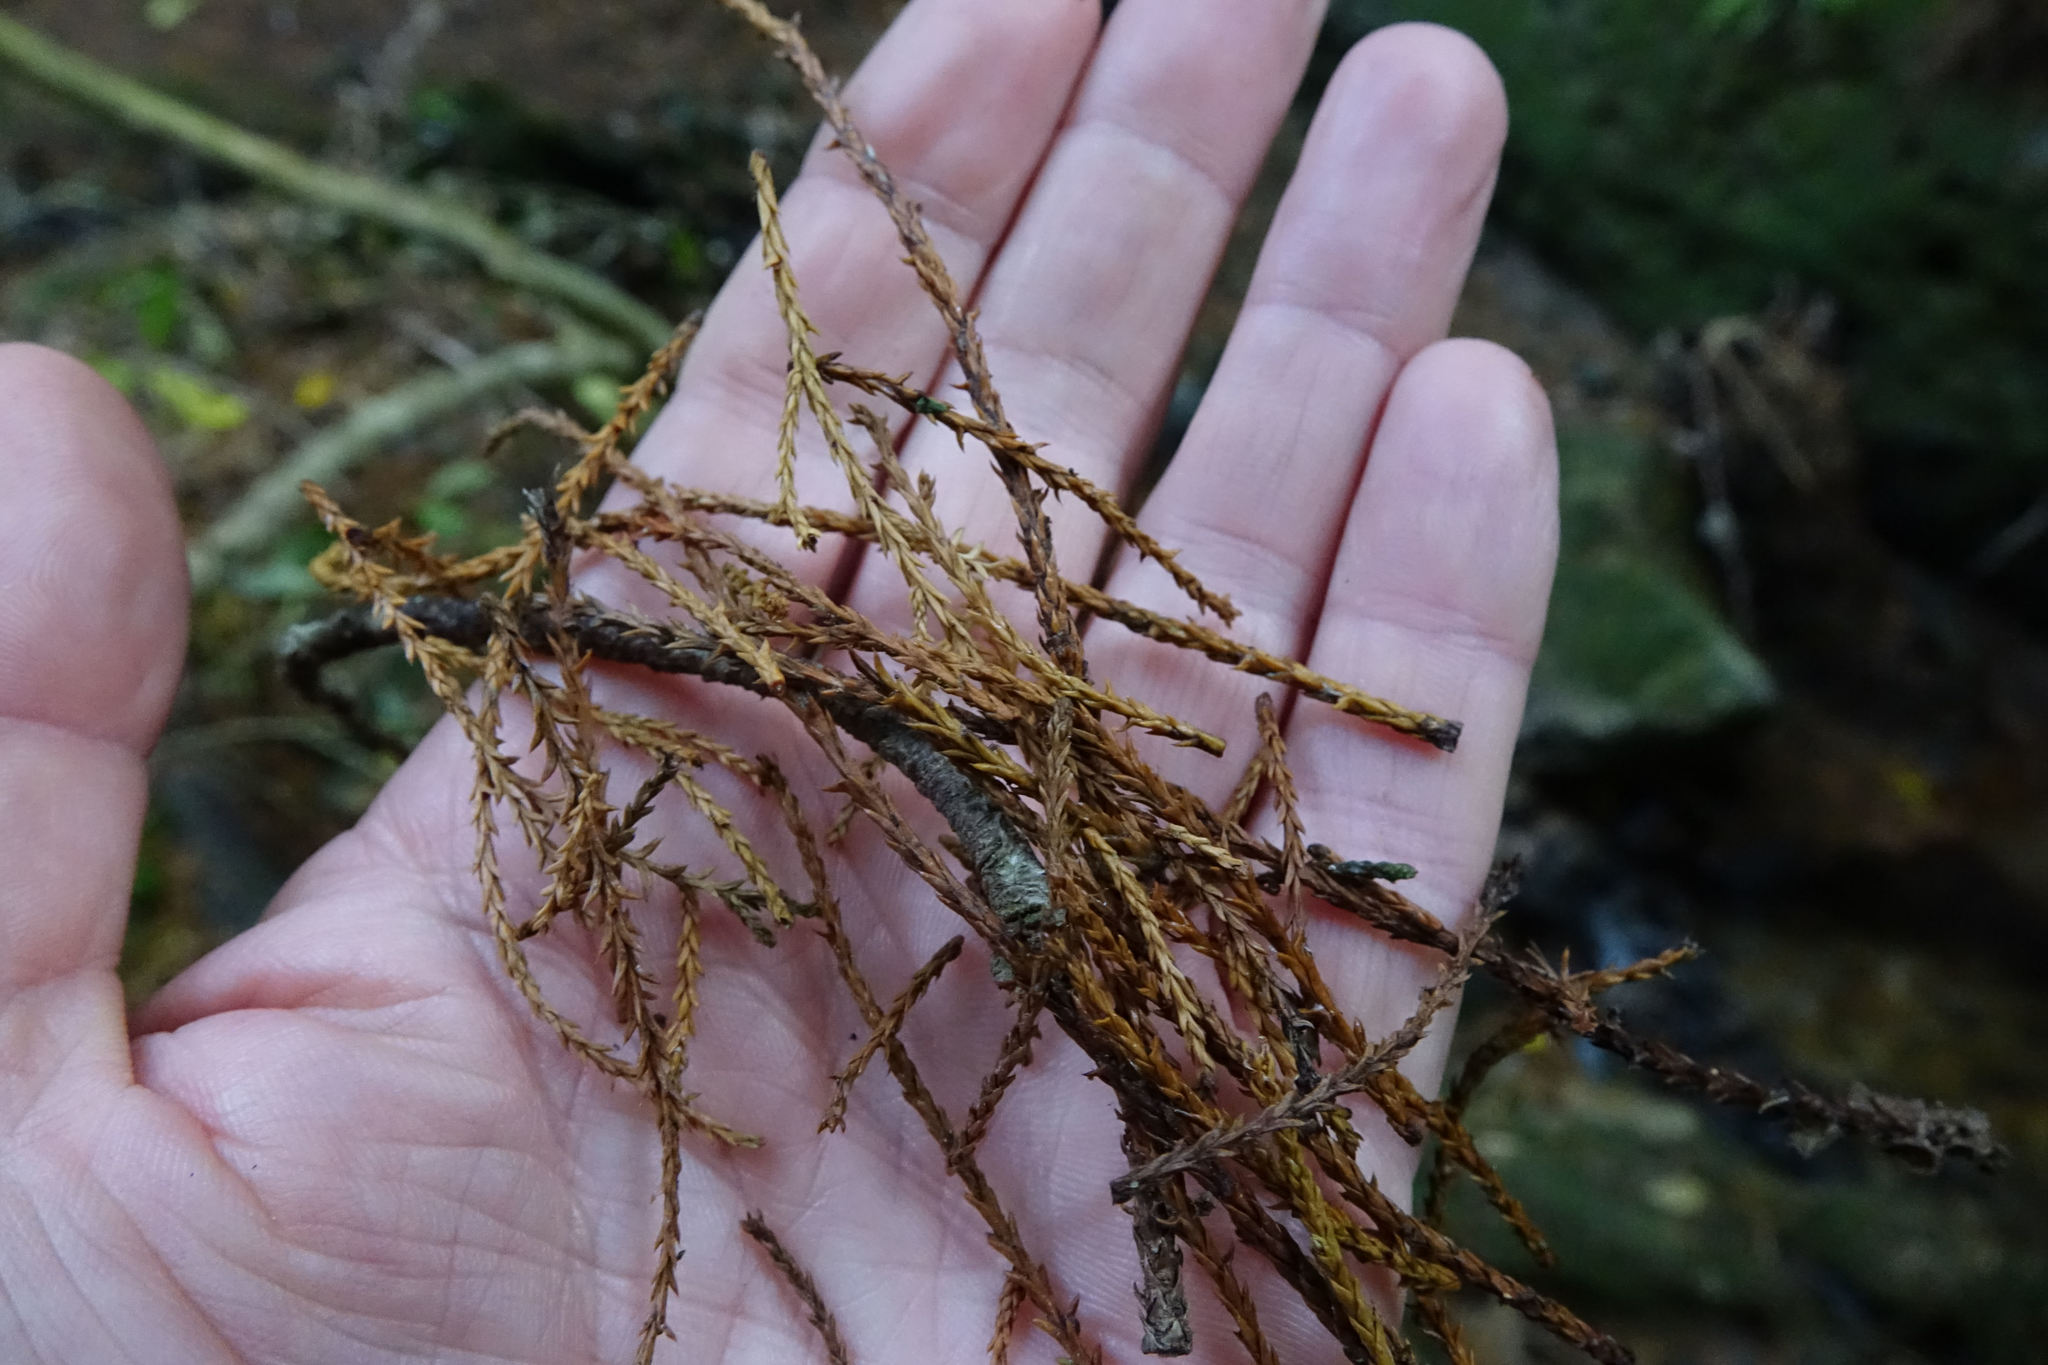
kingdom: Plantae
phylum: Tracheophyta
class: Pinopsida
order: Pinales
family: Podocarpaceae
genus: Dacrycarpus
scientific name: Dacrycarpus dacrydioides
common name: White pine
